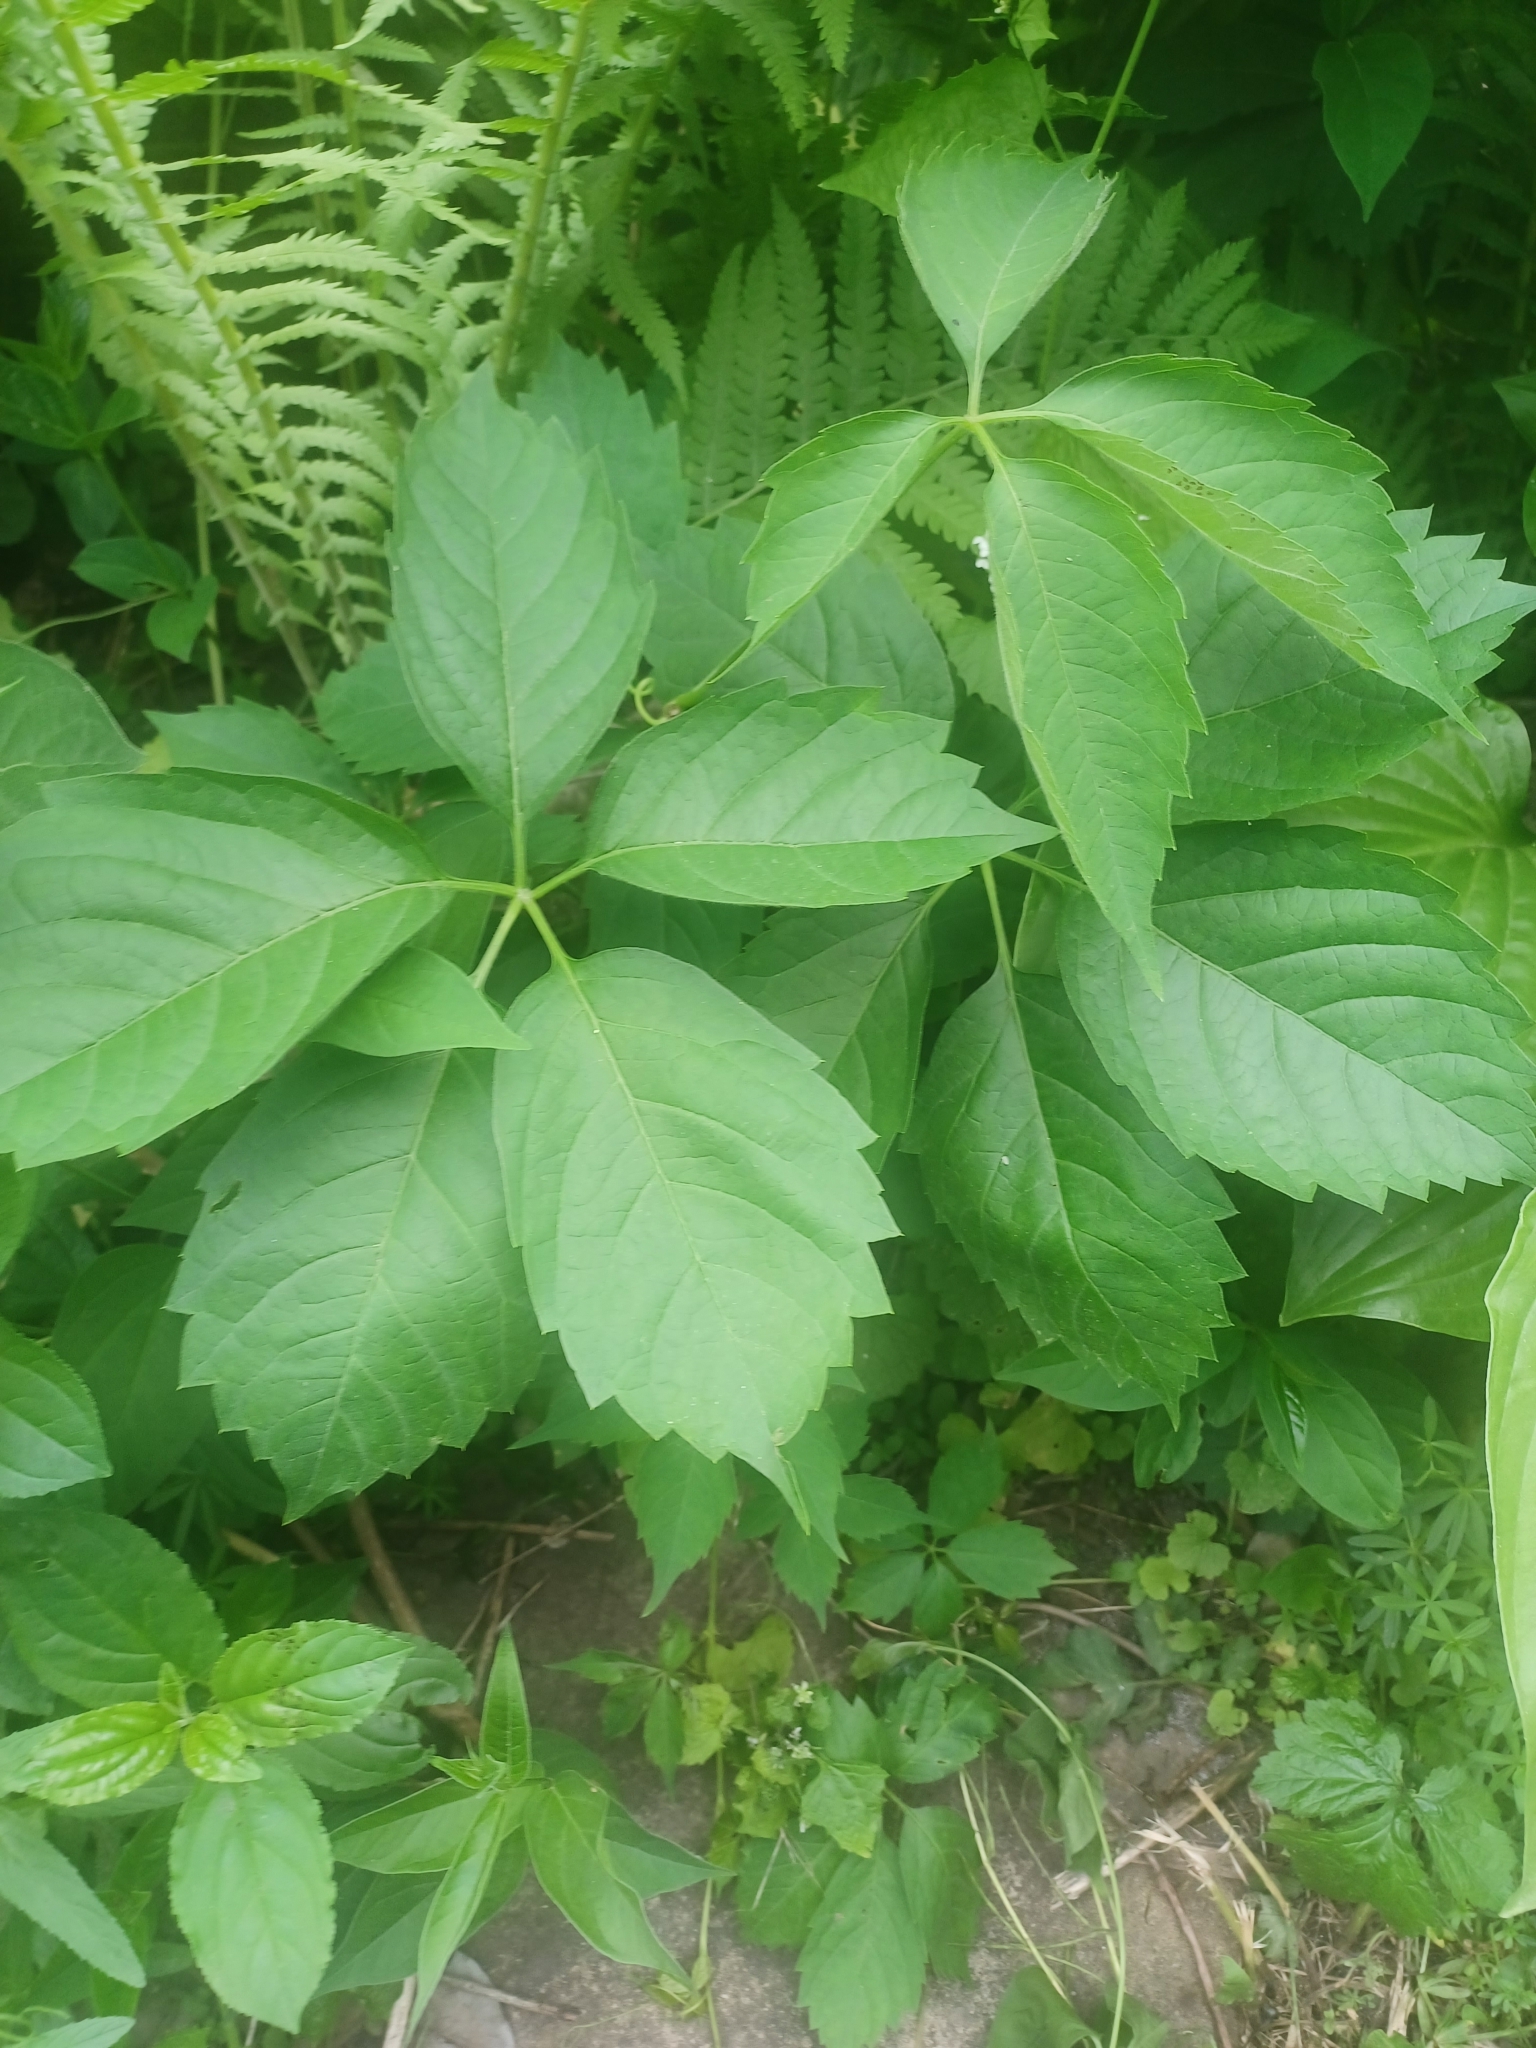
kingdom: Plantae
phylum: Tracheophyta
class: Magnoliopsida
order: Vitales
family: Vitaceae
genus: Parthenocissus
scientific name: Parthenocissus inserta
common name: False virginia-creeper
